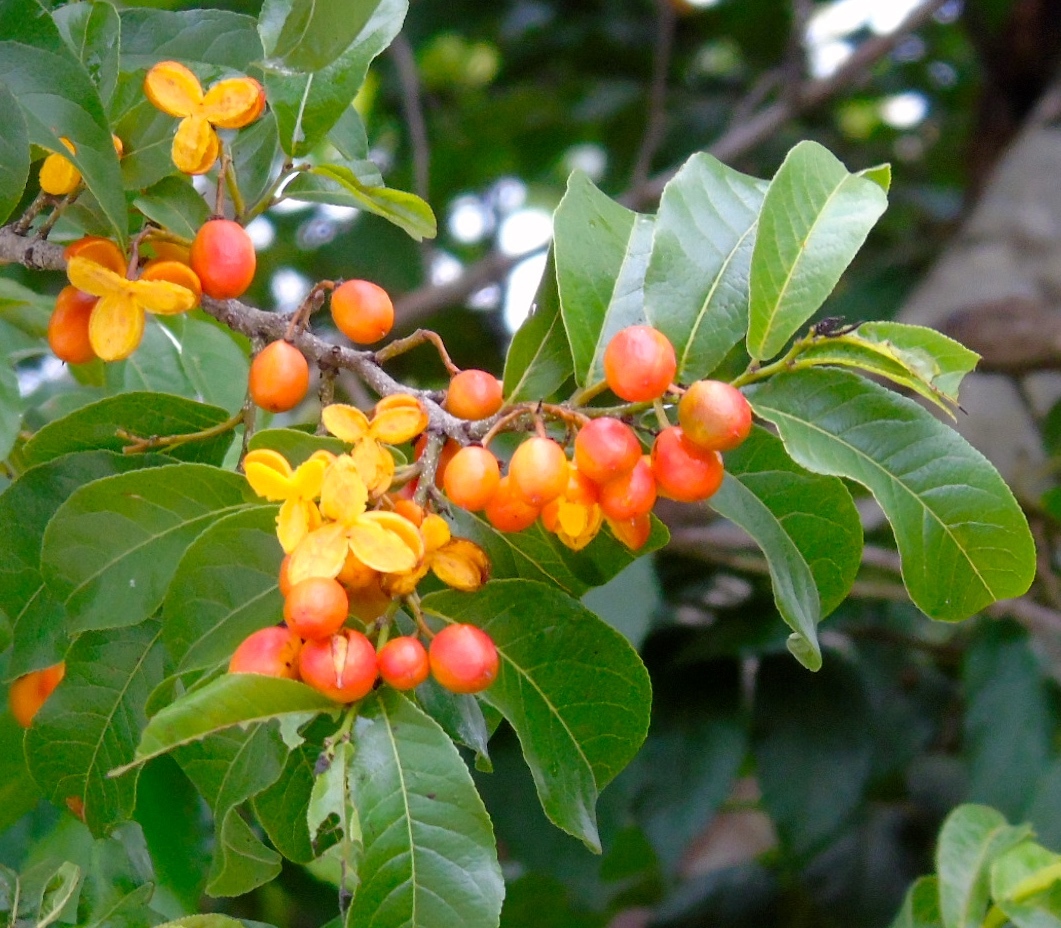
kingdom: Plantae
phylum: Tracheophyta
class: Magnoliopsida
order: Malpighiales
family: Salicaceae
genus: Casearia
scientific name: Casearia nitida
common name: Smooth honeytree
